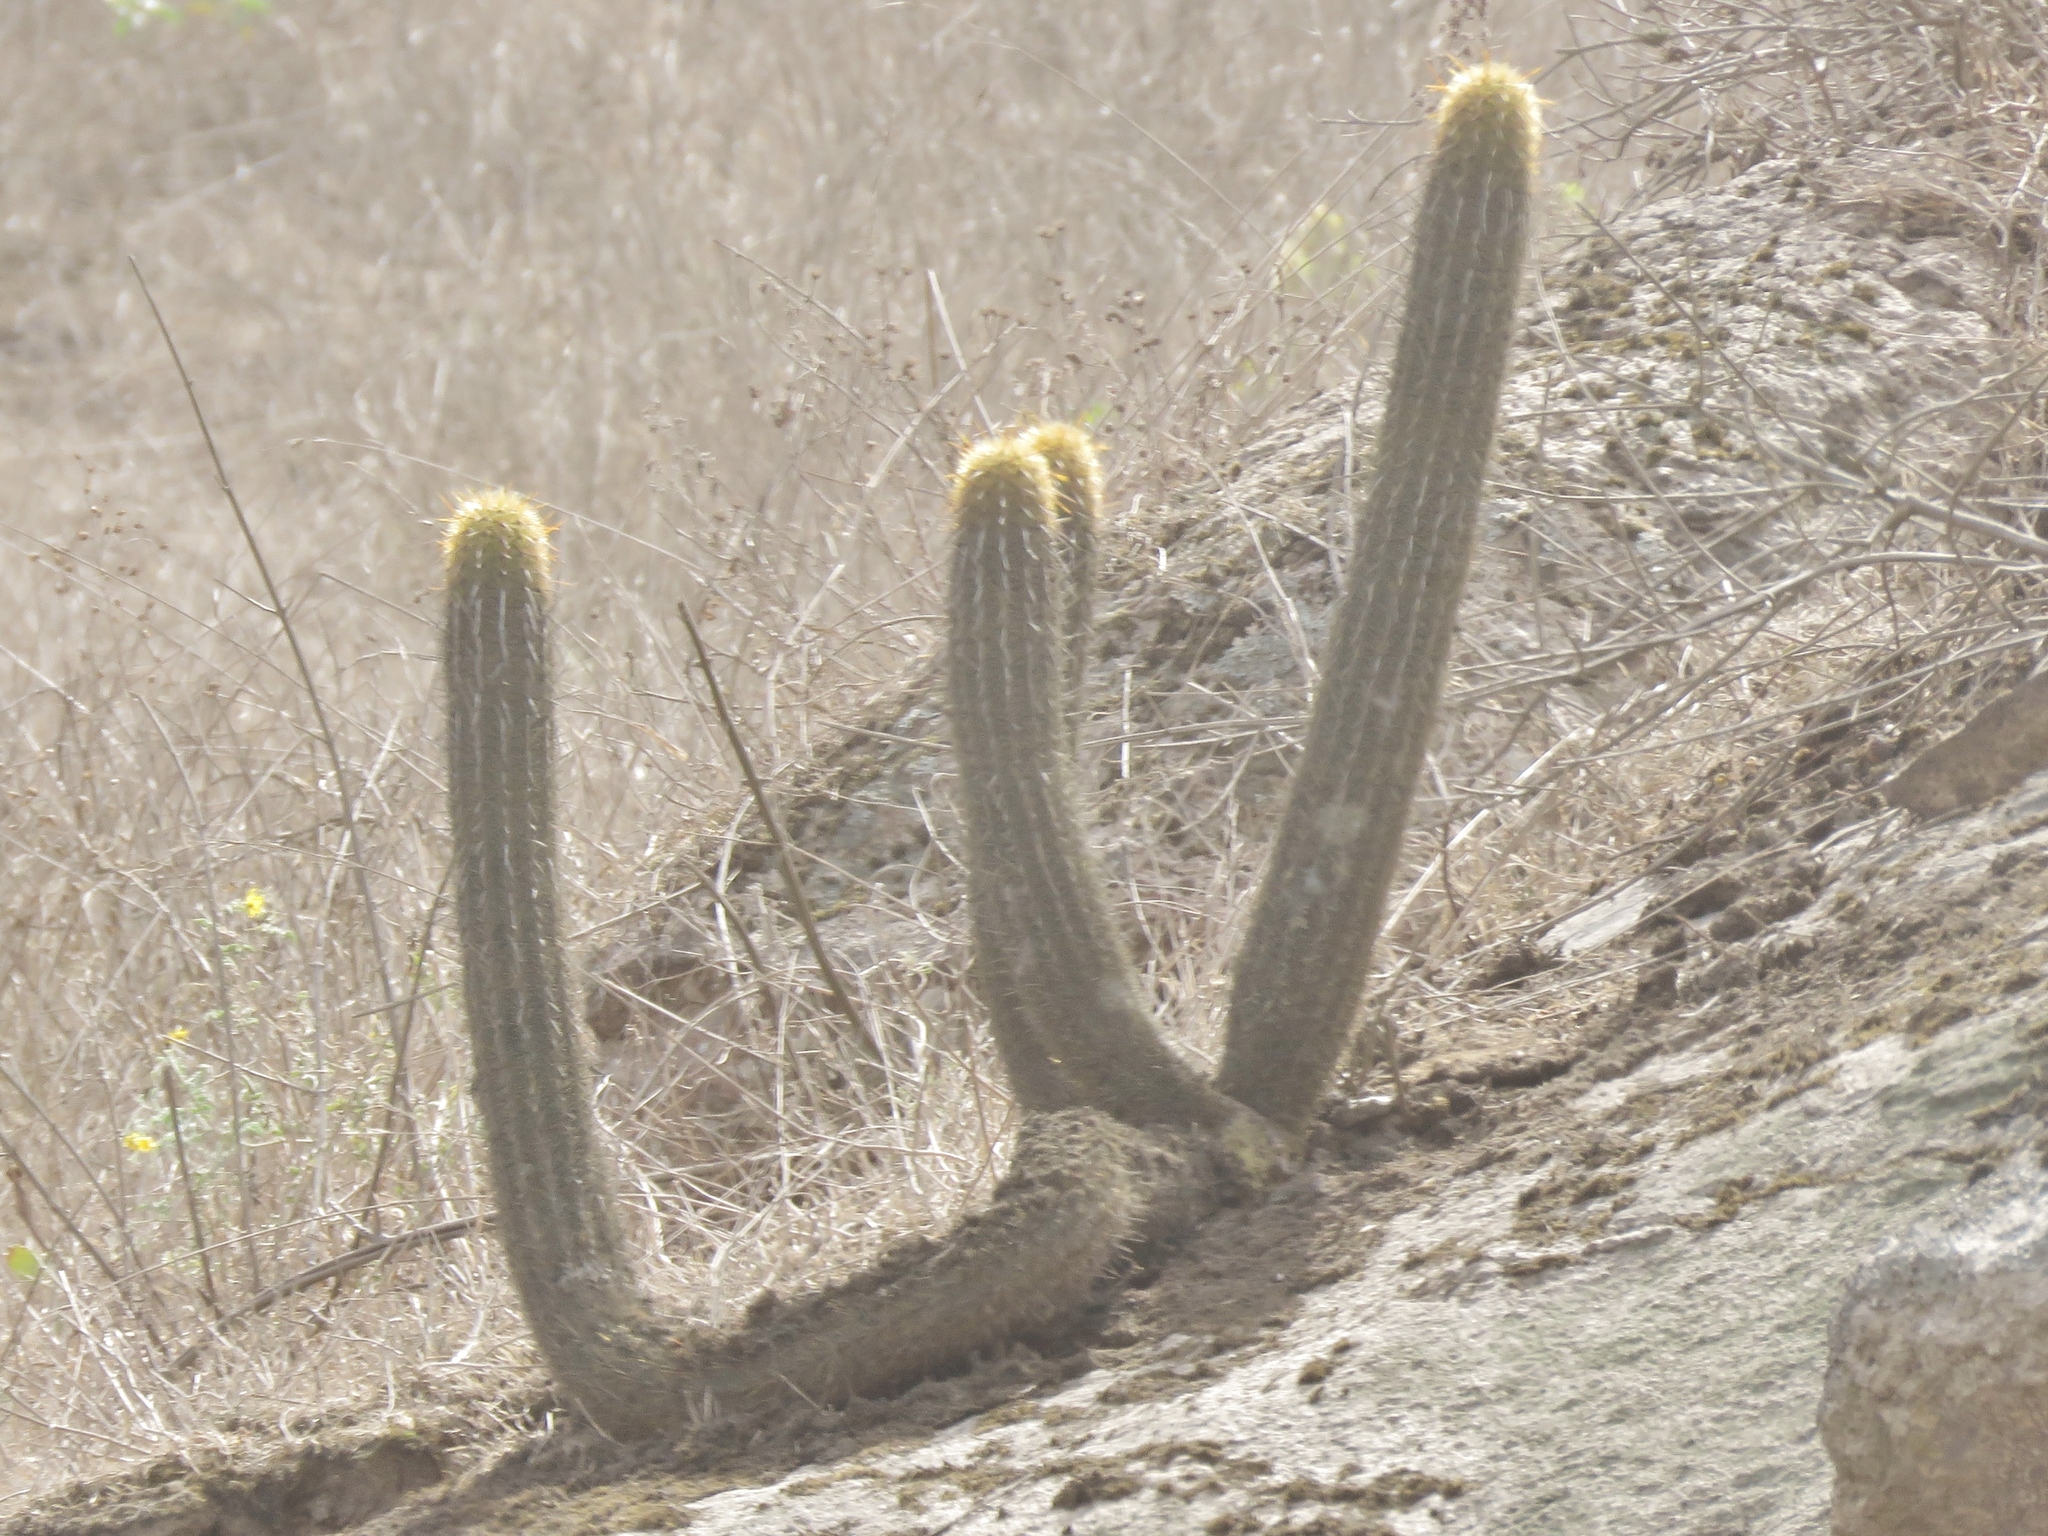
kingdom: Plantae
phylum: Tracheophyta
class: Magnoliopsida
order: Caryophyllales
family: Cactaceae
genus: Haageocereus
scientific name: Haageocereus acranthus
